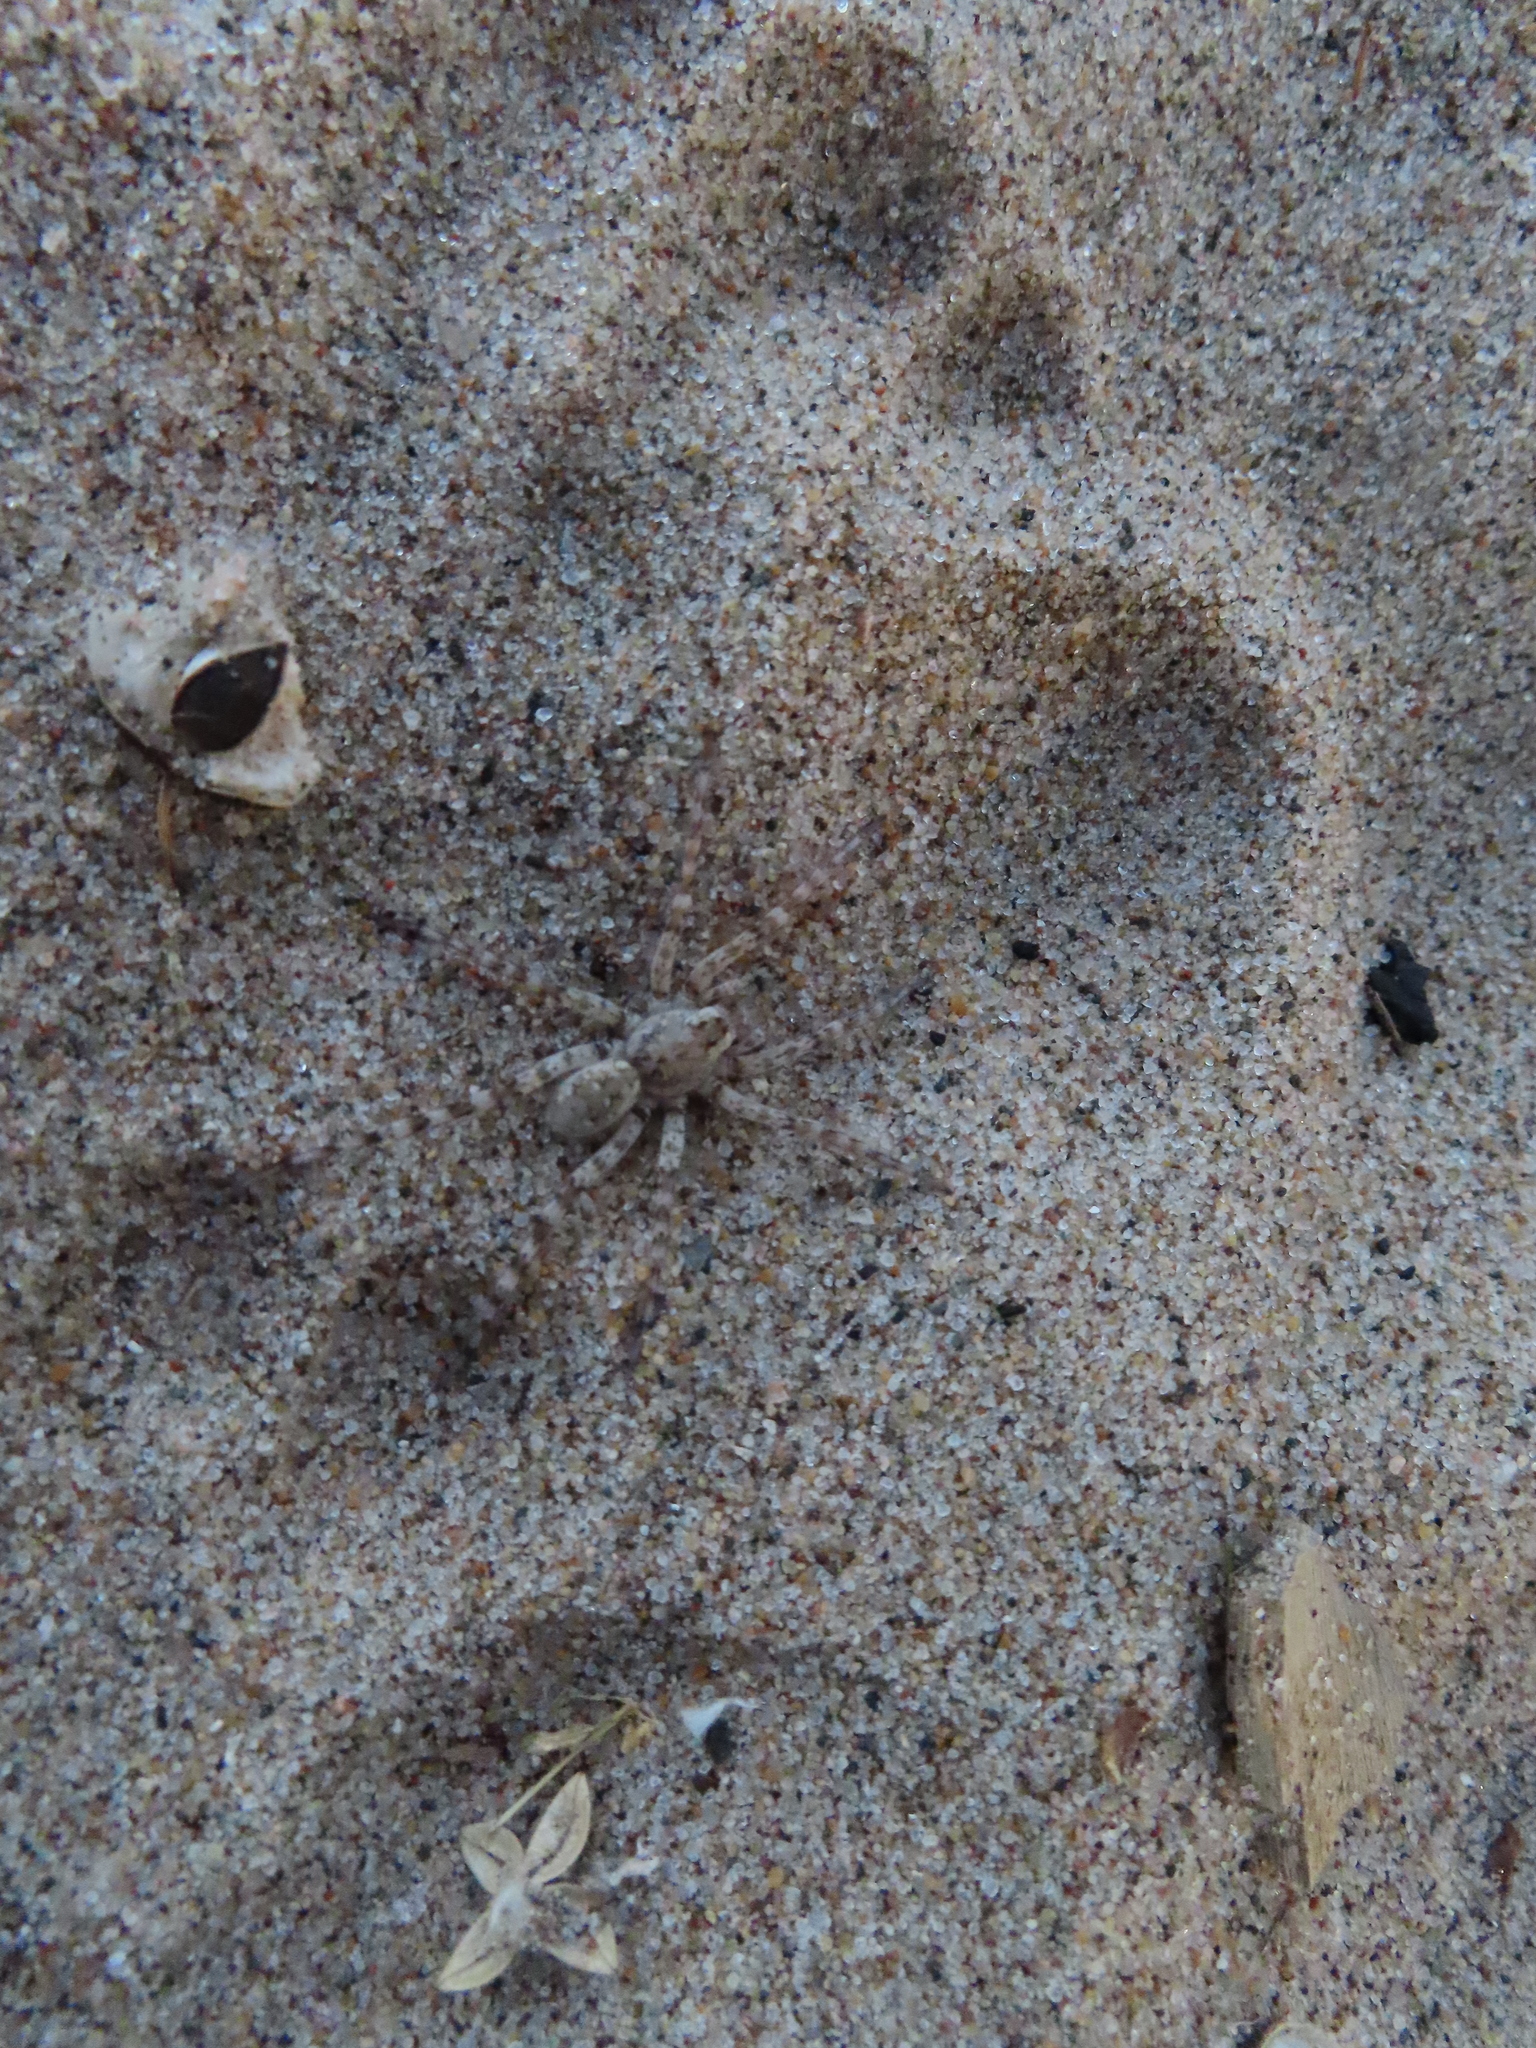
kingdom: Animalia
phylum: Arthropoda
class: Arachnida
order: Araneae
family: Lycosidae
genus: Arctosa
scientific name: Arctosa littoralis
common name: Wolf spiders
